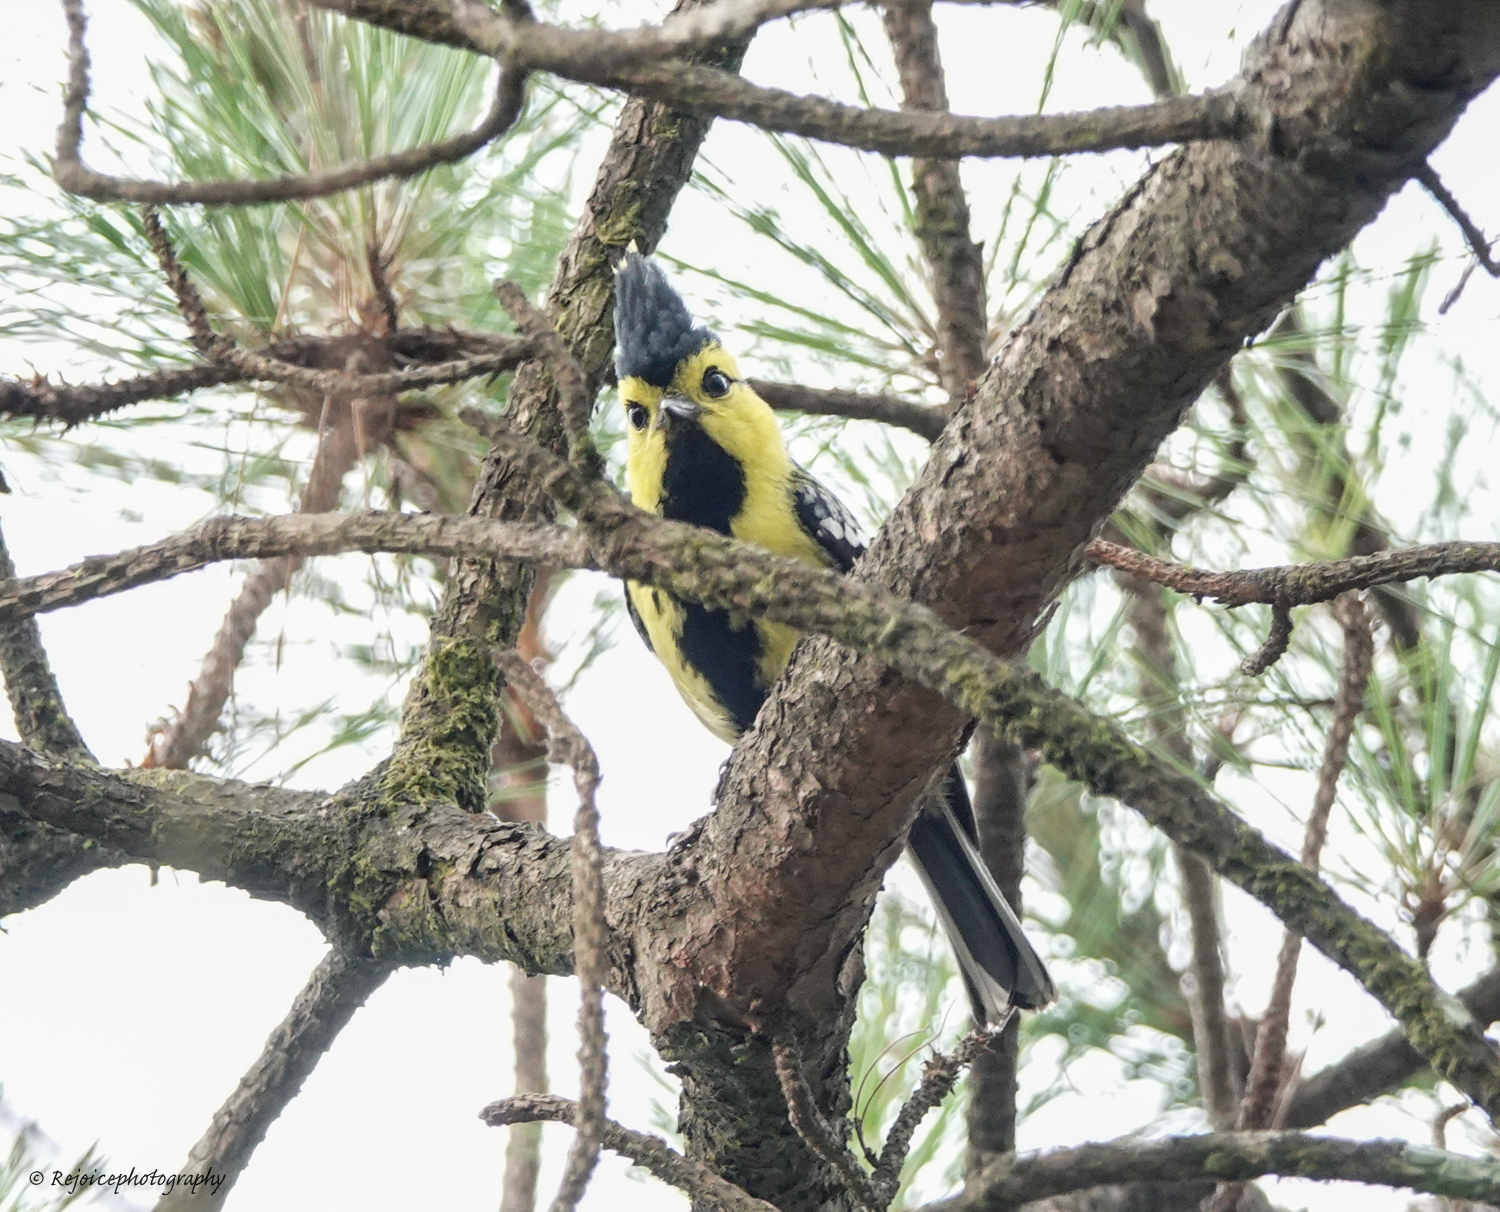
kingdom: Animalia
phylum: Chordata
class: Aves
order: Passeriformes
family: Paridae
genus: Parus
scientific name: Parus spilonotus
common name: Yellow-cheeked tit
